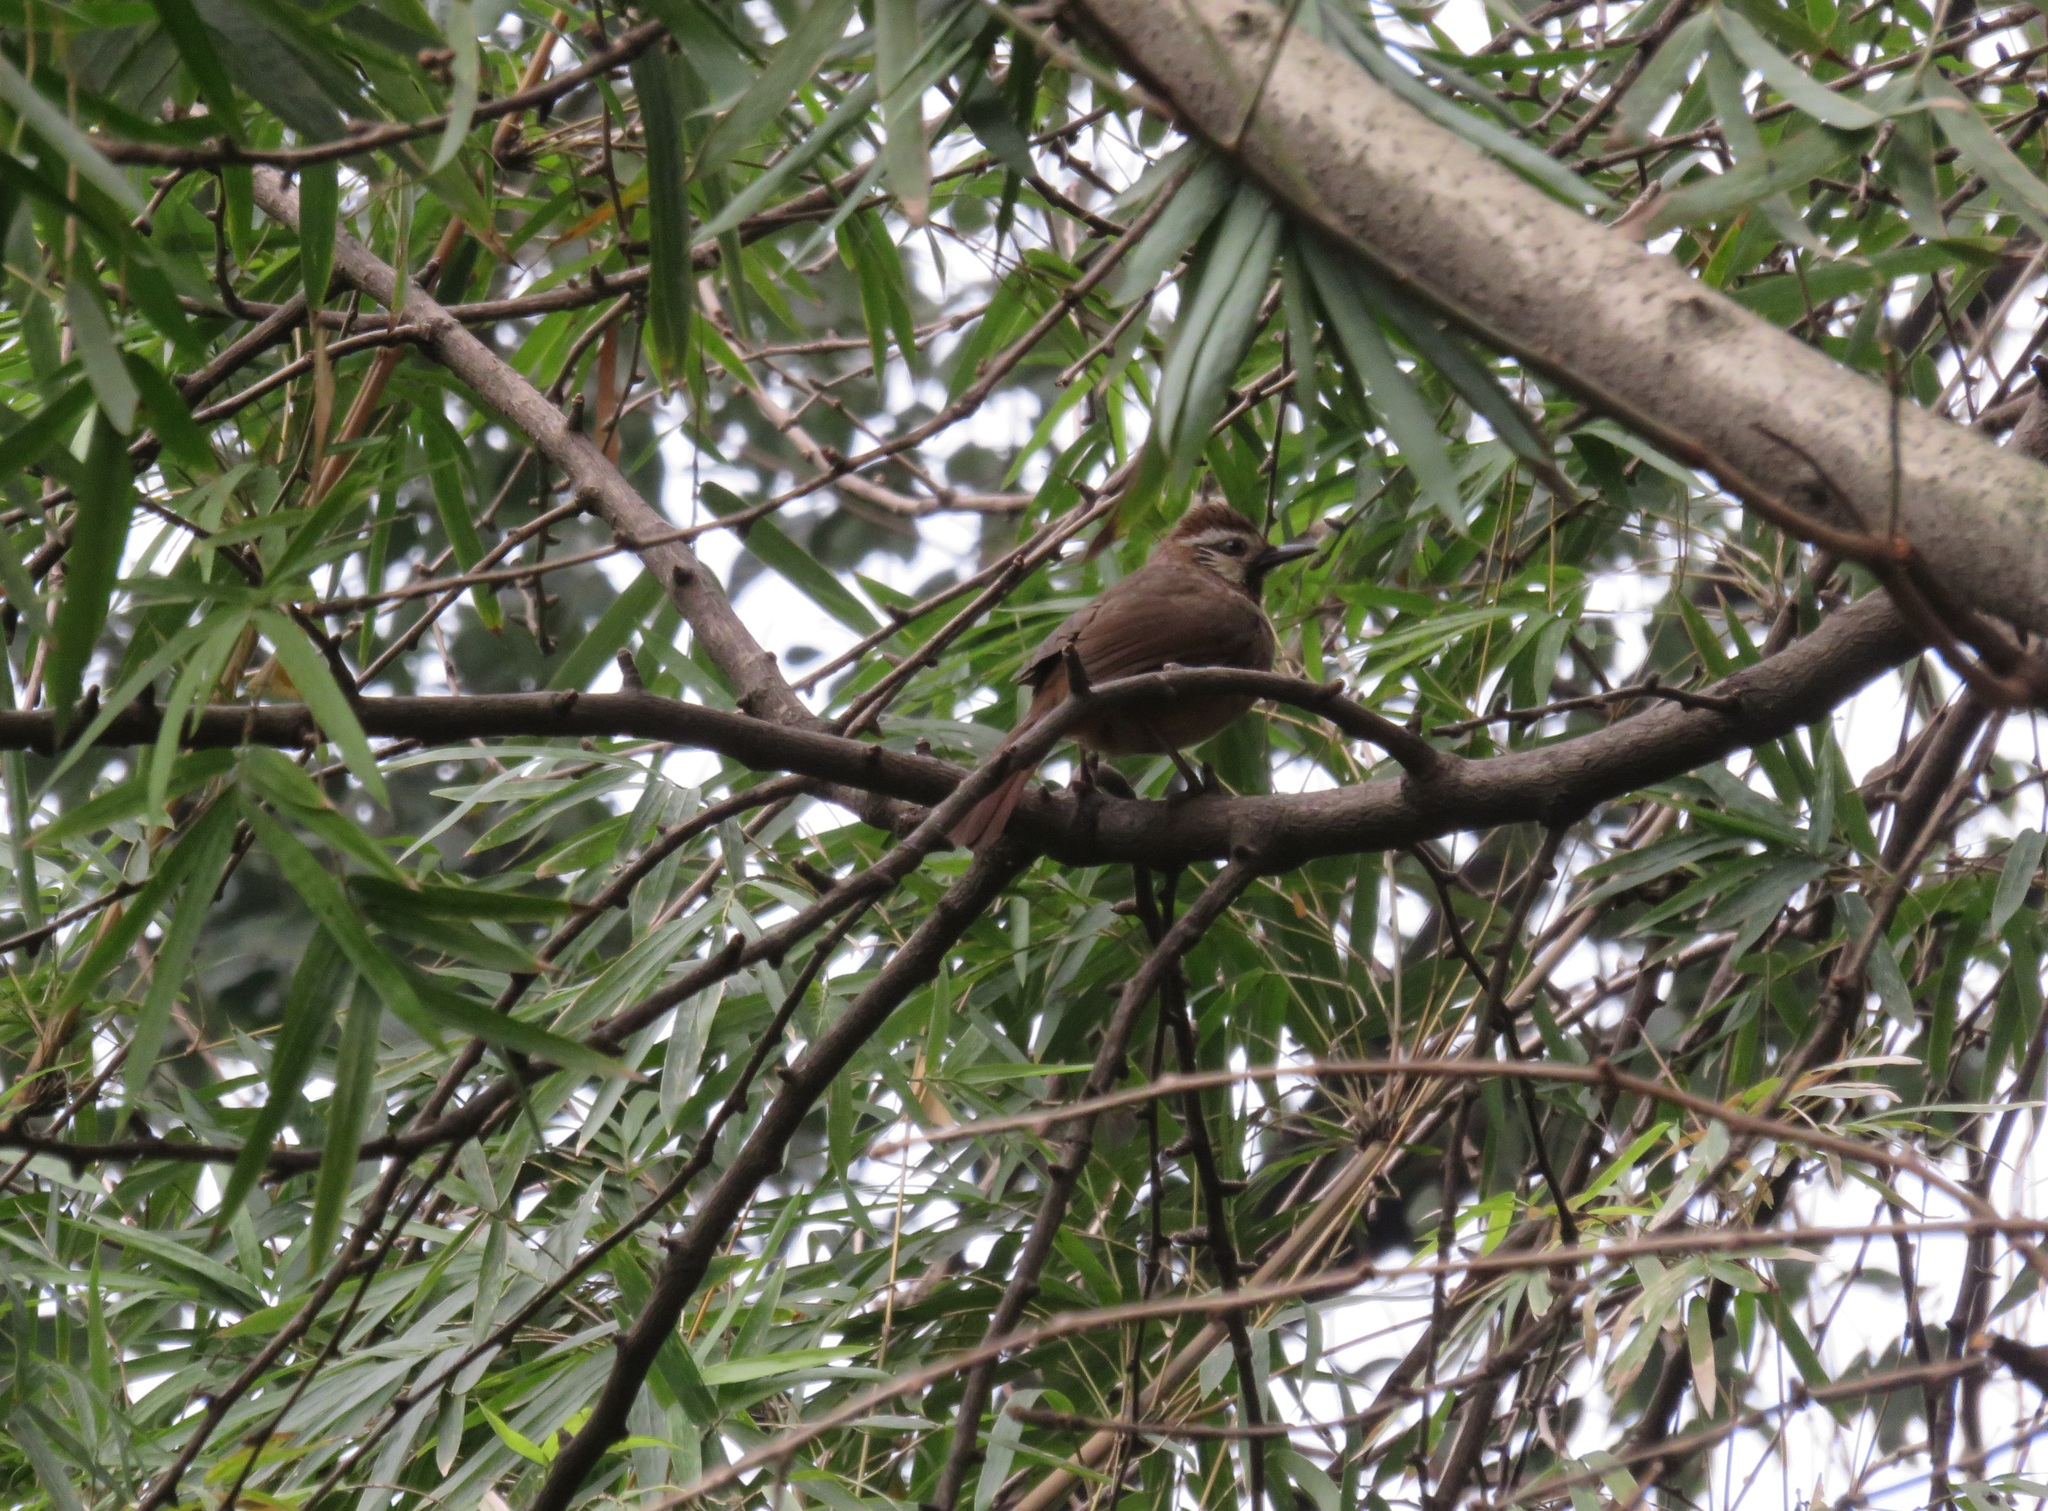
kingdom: Animalia
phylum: Chordata
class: Aves
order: Passeriformes
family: Leiothrichidae
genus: Pterorhinus
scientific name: Pterorhinus sannio
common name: White-browed laughingthrush
